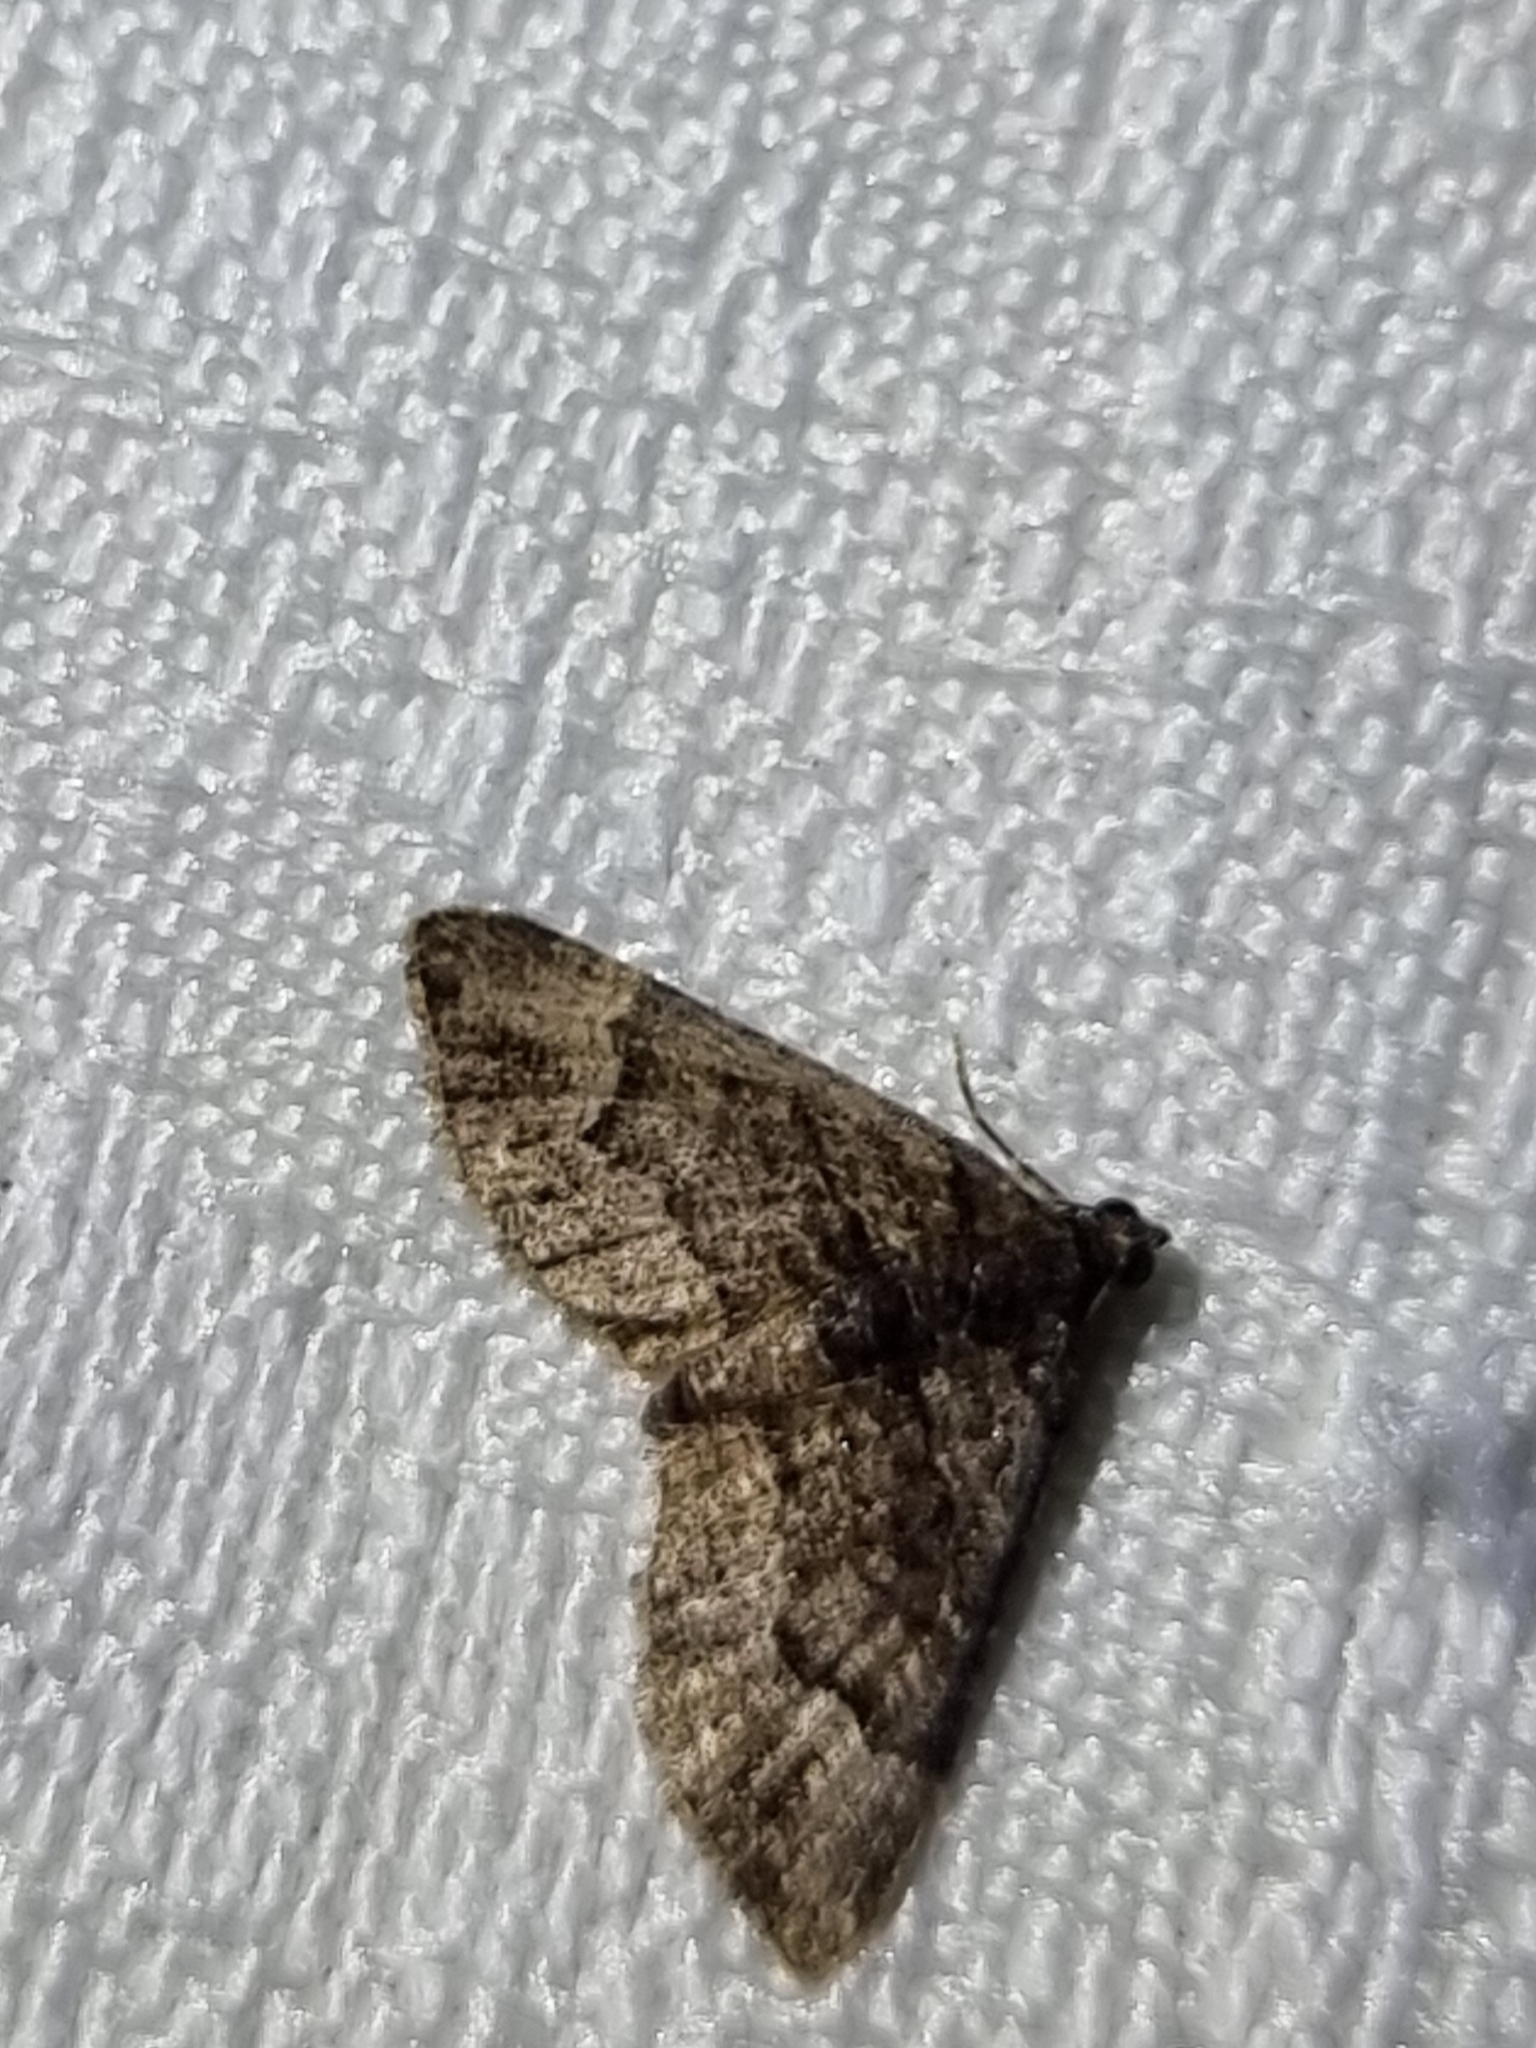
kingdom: Animalia
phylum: Arthropoda
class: Insecta
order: Lepidoptera
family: Geometridae
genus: Epyaxa
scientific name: Epyaxa sodaliata
